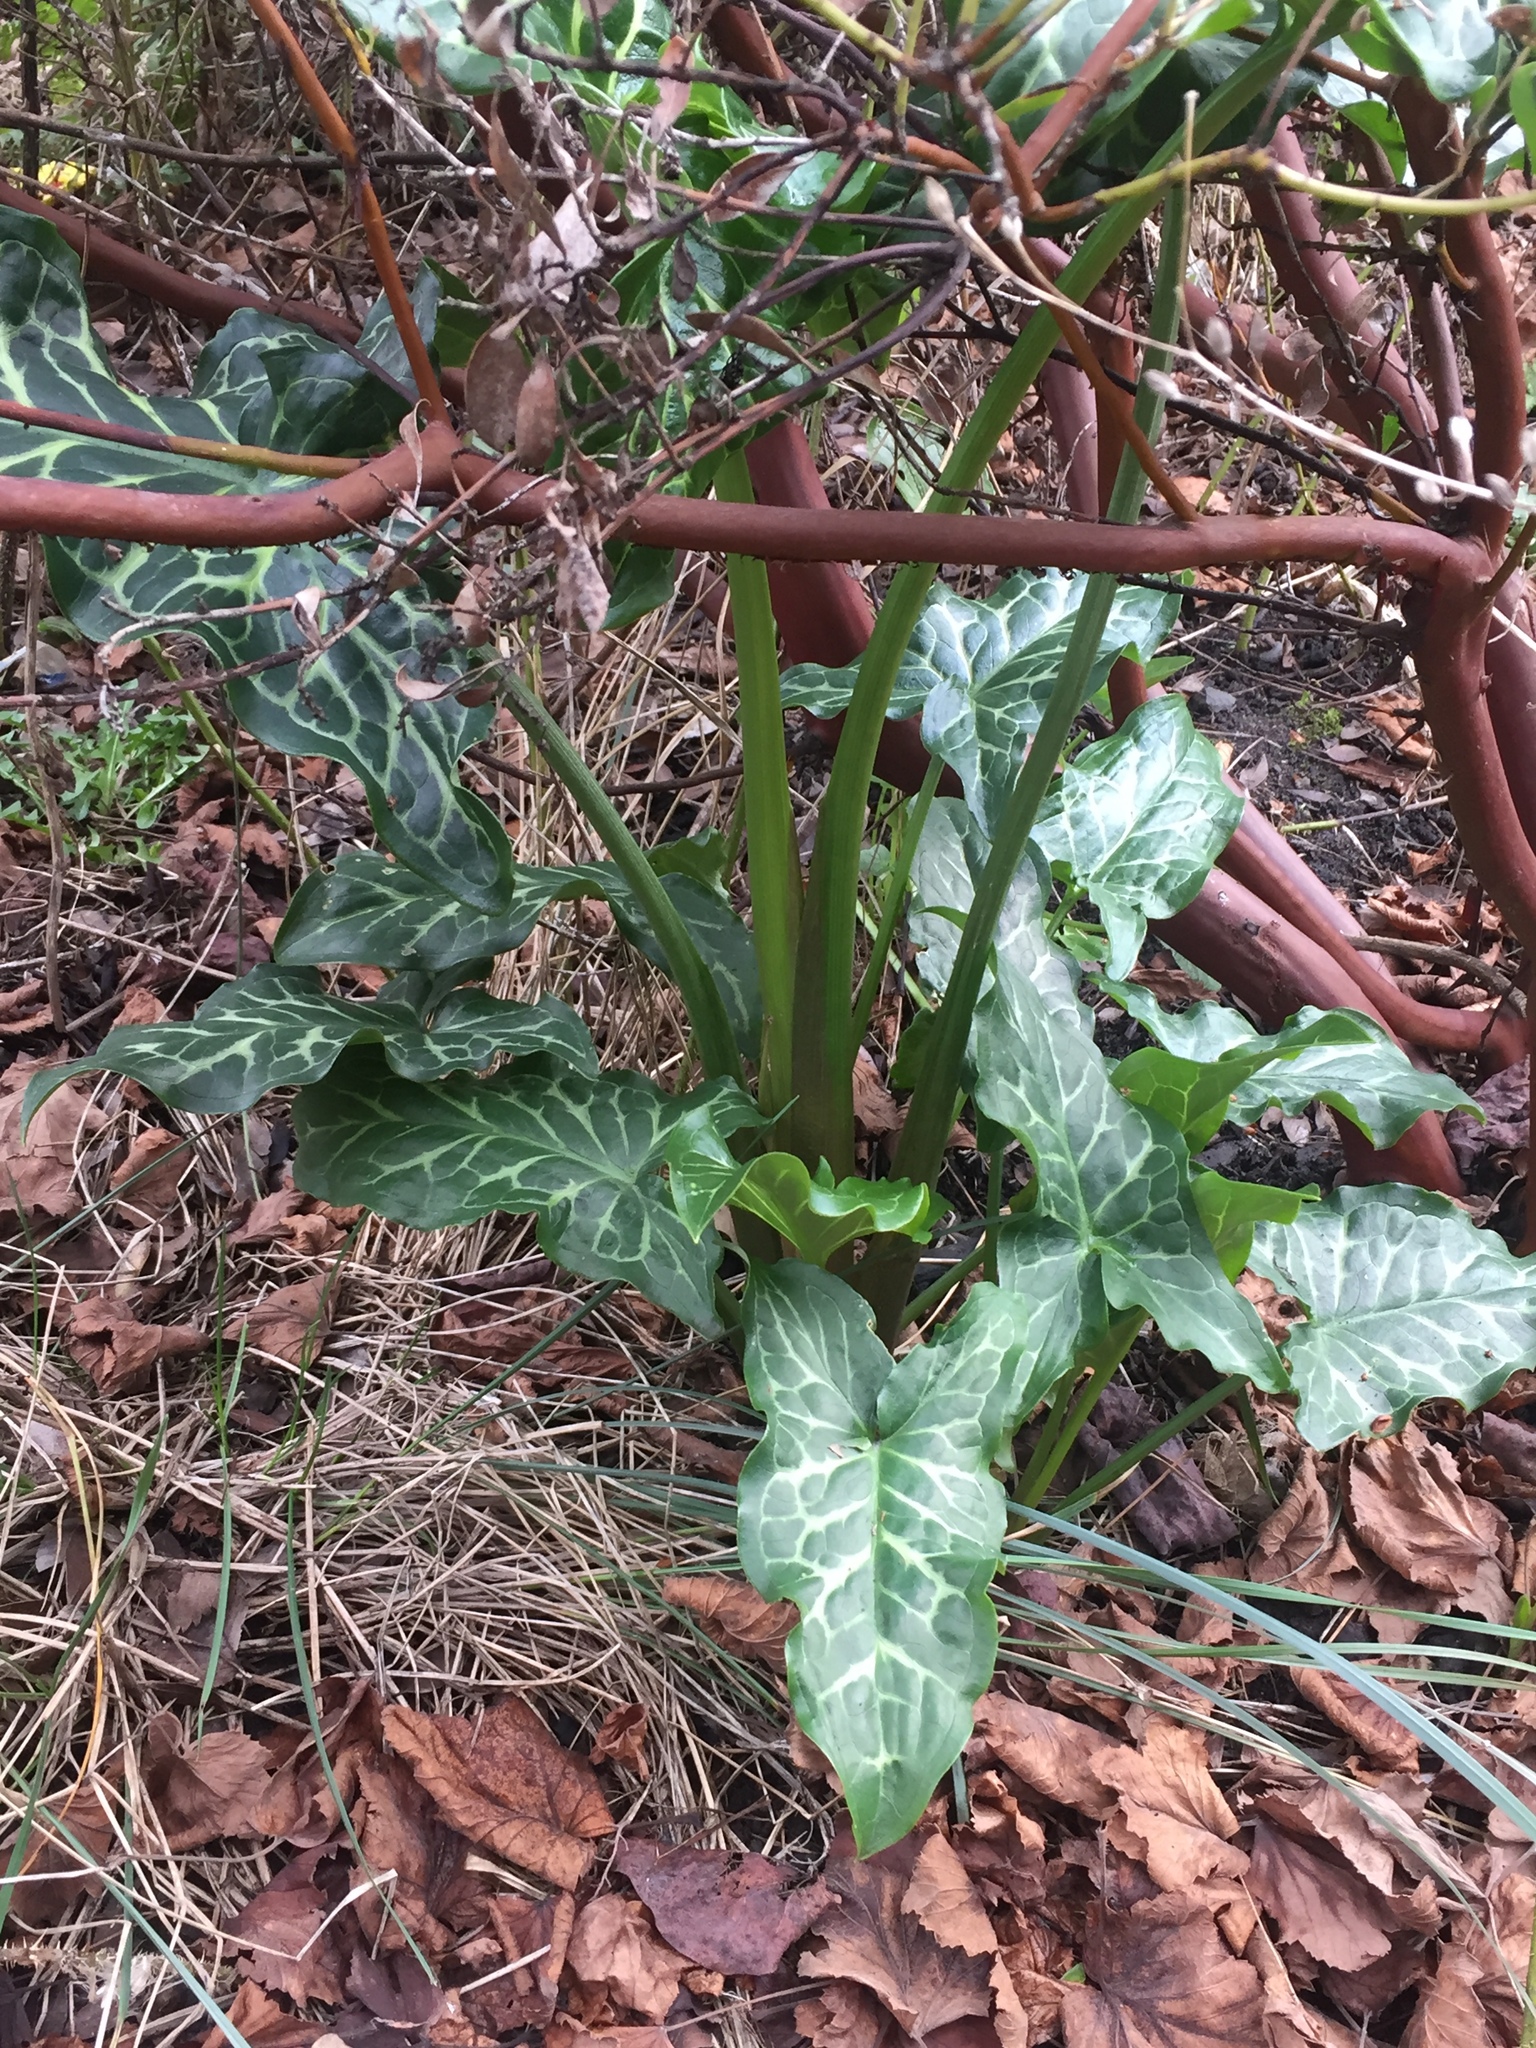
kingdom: Plantae
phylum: Tracheophyta
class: Liliopsida
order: Alismatales
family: Araceae
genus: Arum
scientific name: Arum italicum
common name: Italian lords-and-ladies
